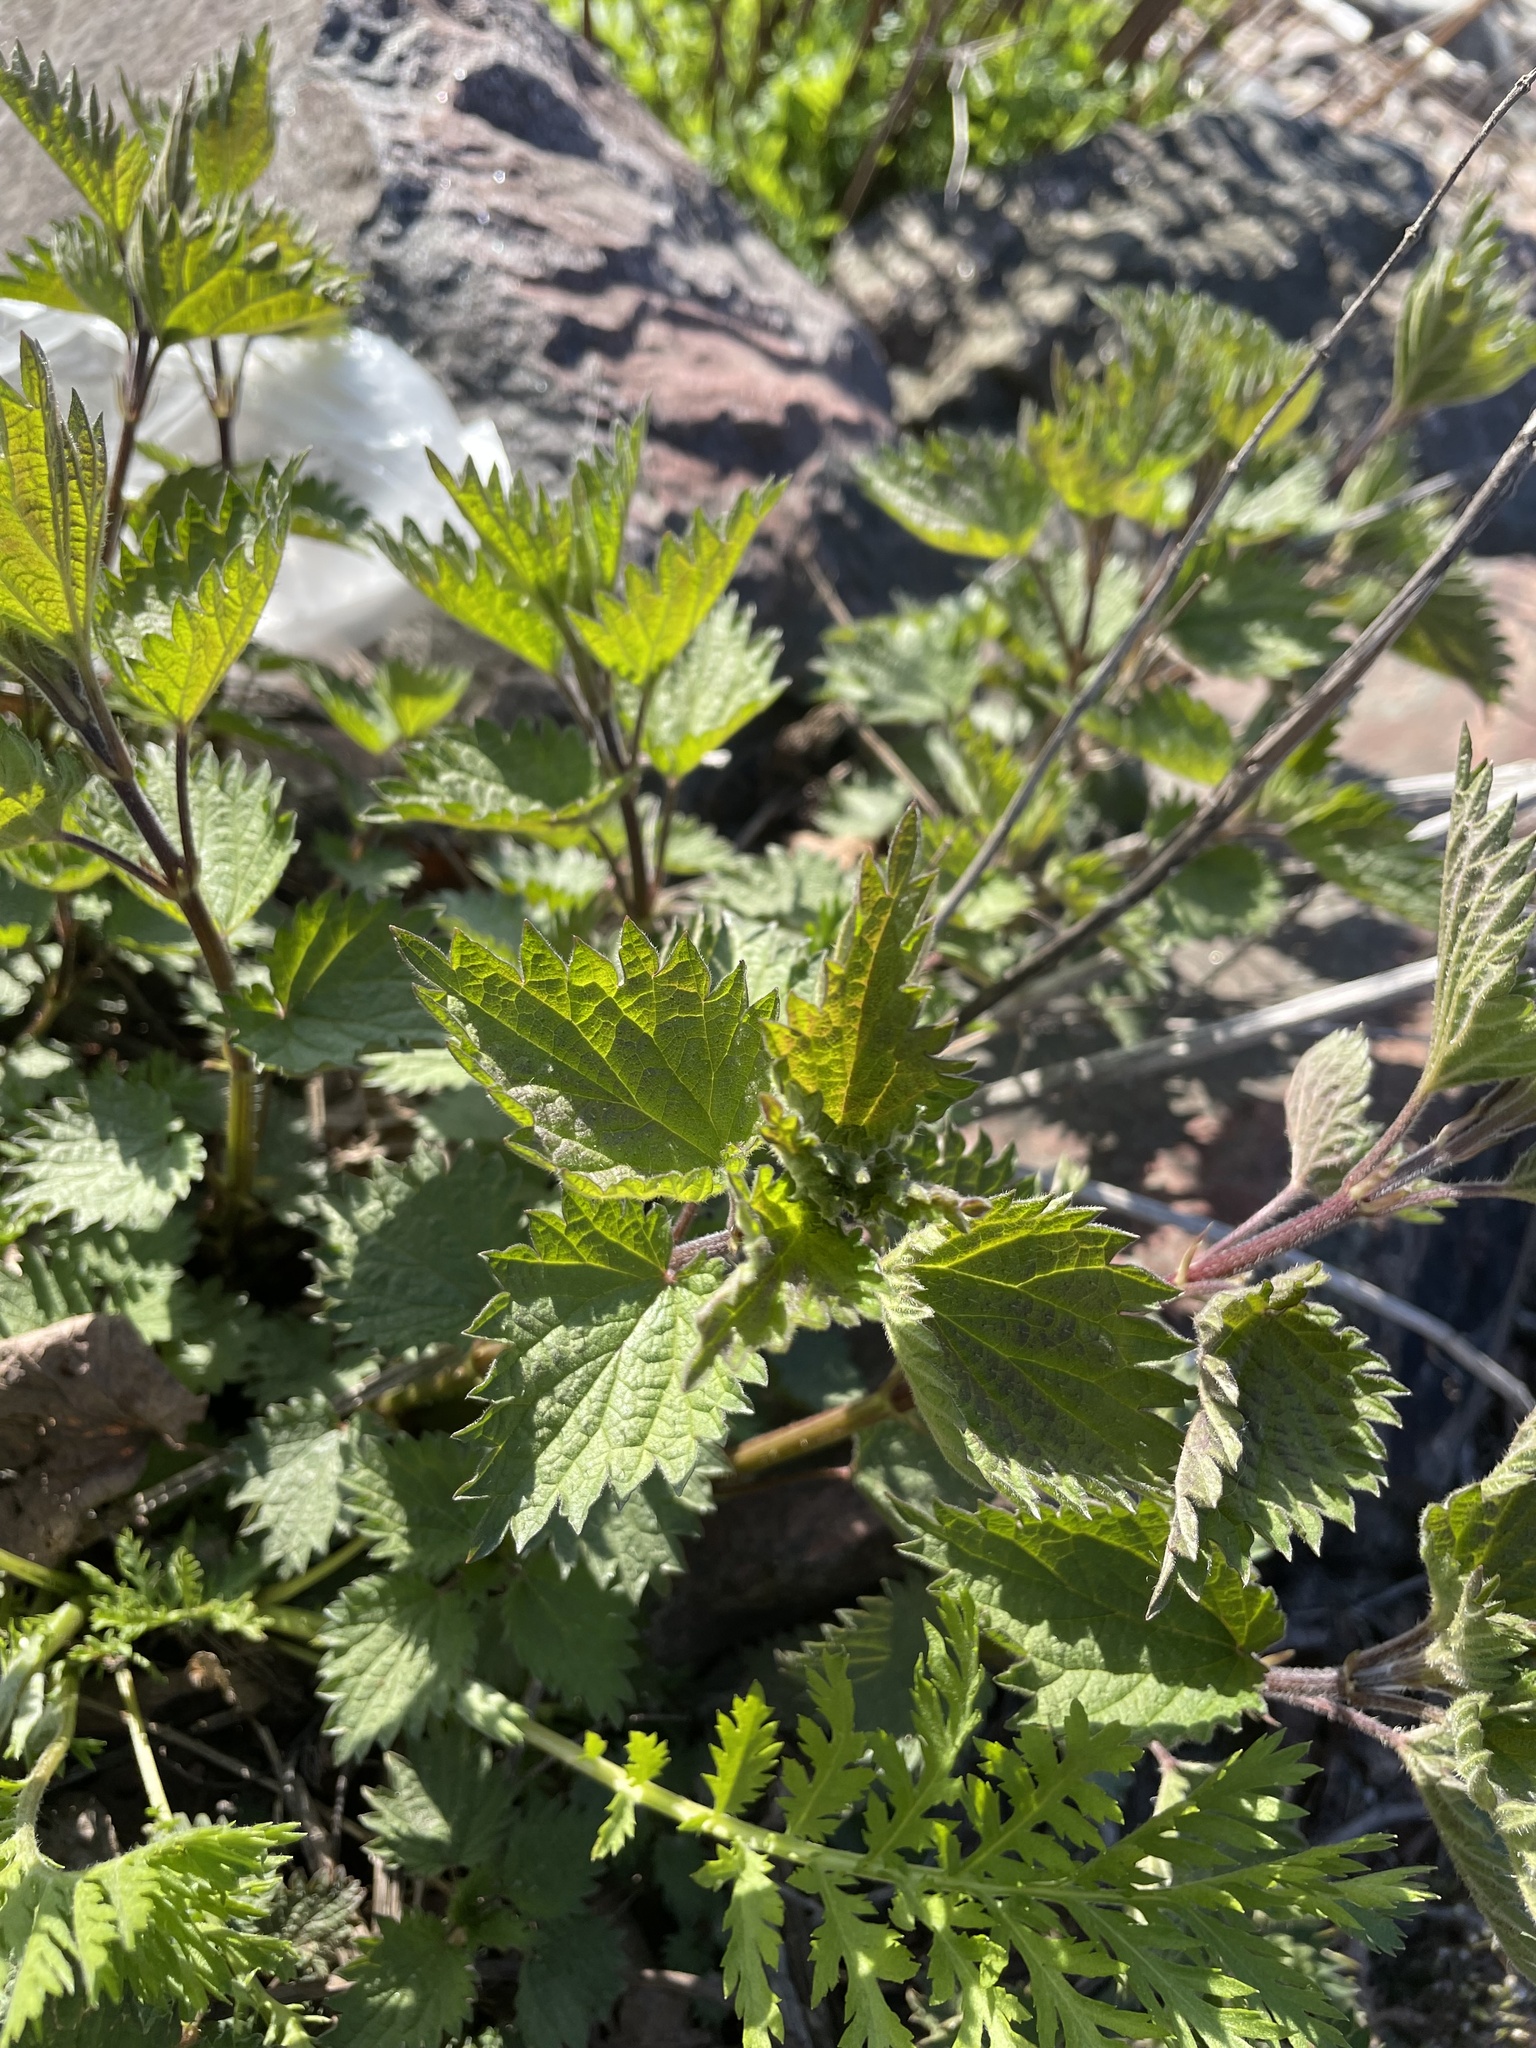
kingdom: Plantae
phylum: Tracheophyta
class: Magnoliopsida
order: Rosales
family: Urticaceae
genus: Urtica
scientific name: Urtica dioica
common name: Common nettle
